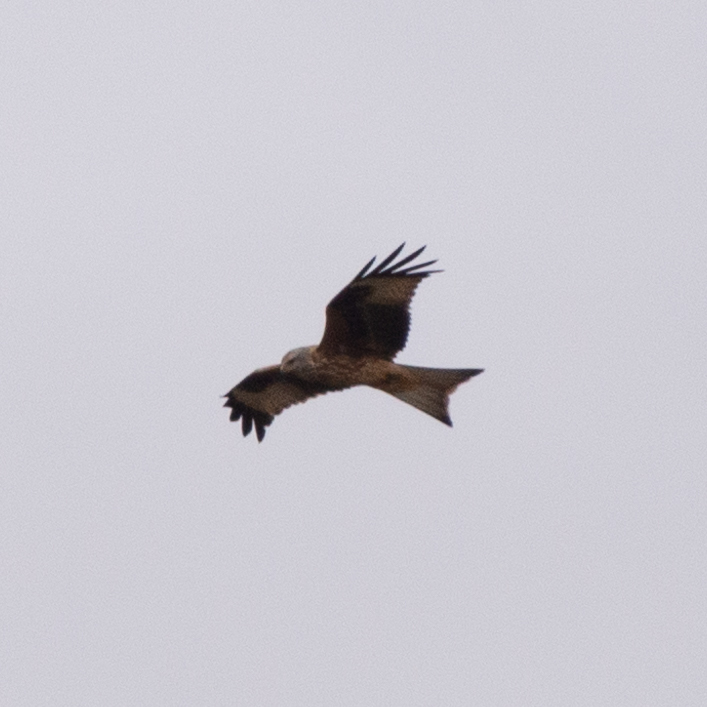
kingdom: Animalia
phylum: Chordata
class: Aves
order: Accipitriformes
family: Accipitridae
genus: Milvus
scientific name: Milvus milvus
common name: Red kite
